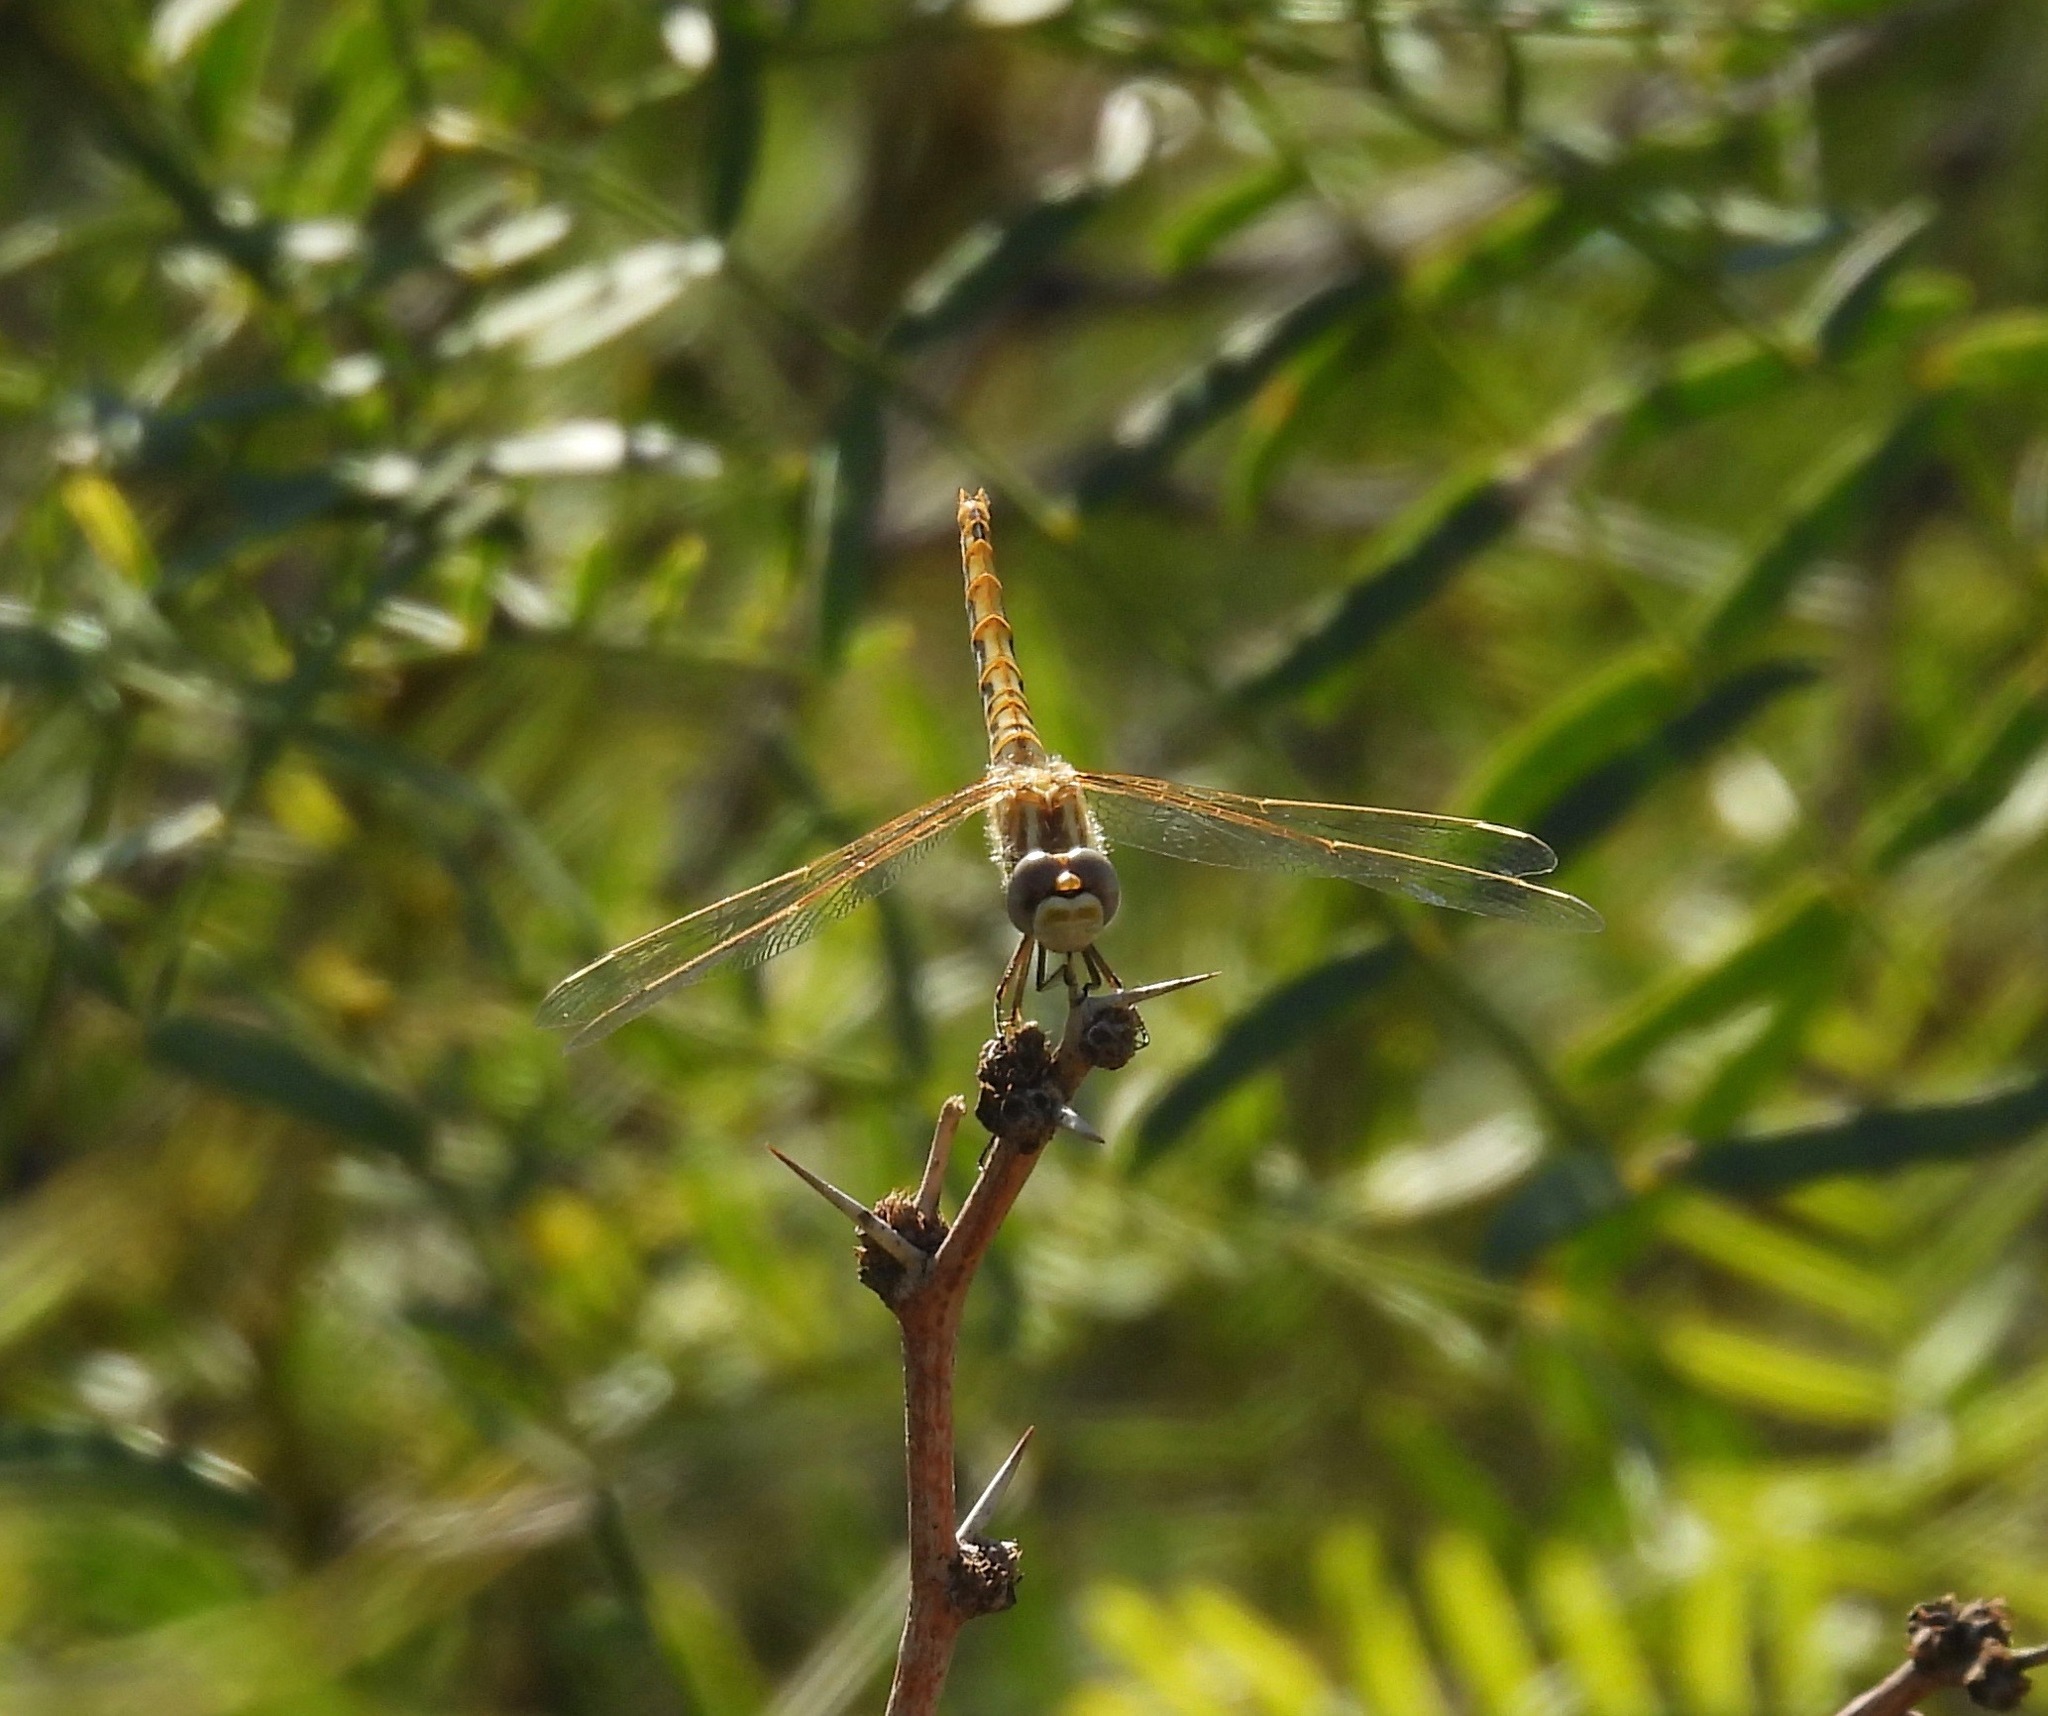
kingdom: Animalia
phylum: Arthropoda
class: Insecta
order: Odonata
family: Libellulidae
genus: Sympetrum
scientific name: Sympetrum corruptum
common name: Variegated meadowhawk
